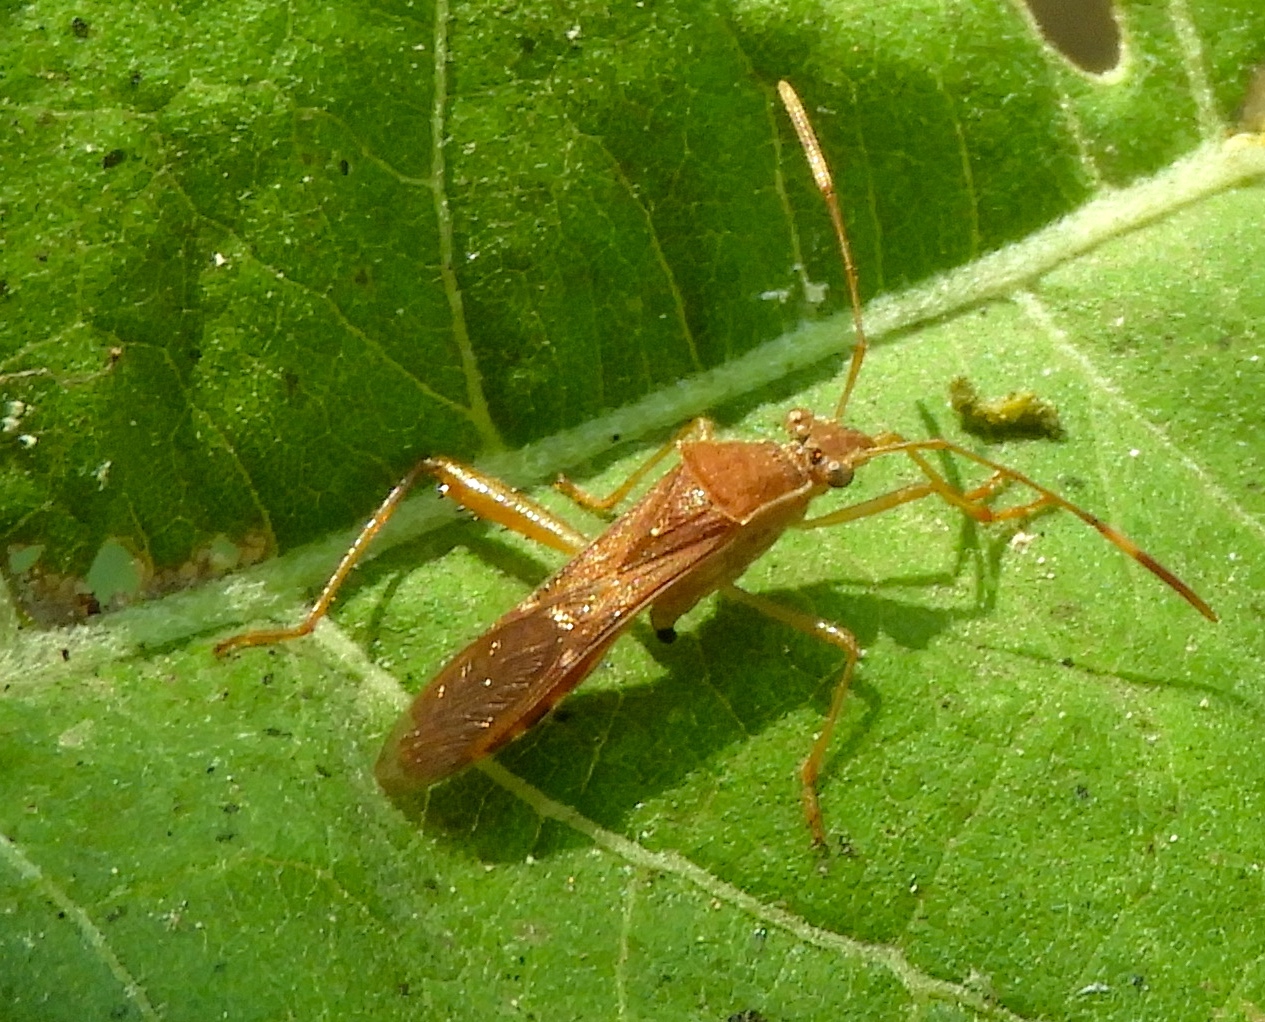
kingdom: Animalia
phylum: Arthropoda
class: Insecta
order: Hemiptera
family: Alydidae
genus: Burtinus
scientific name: Burtinus notatipennis
